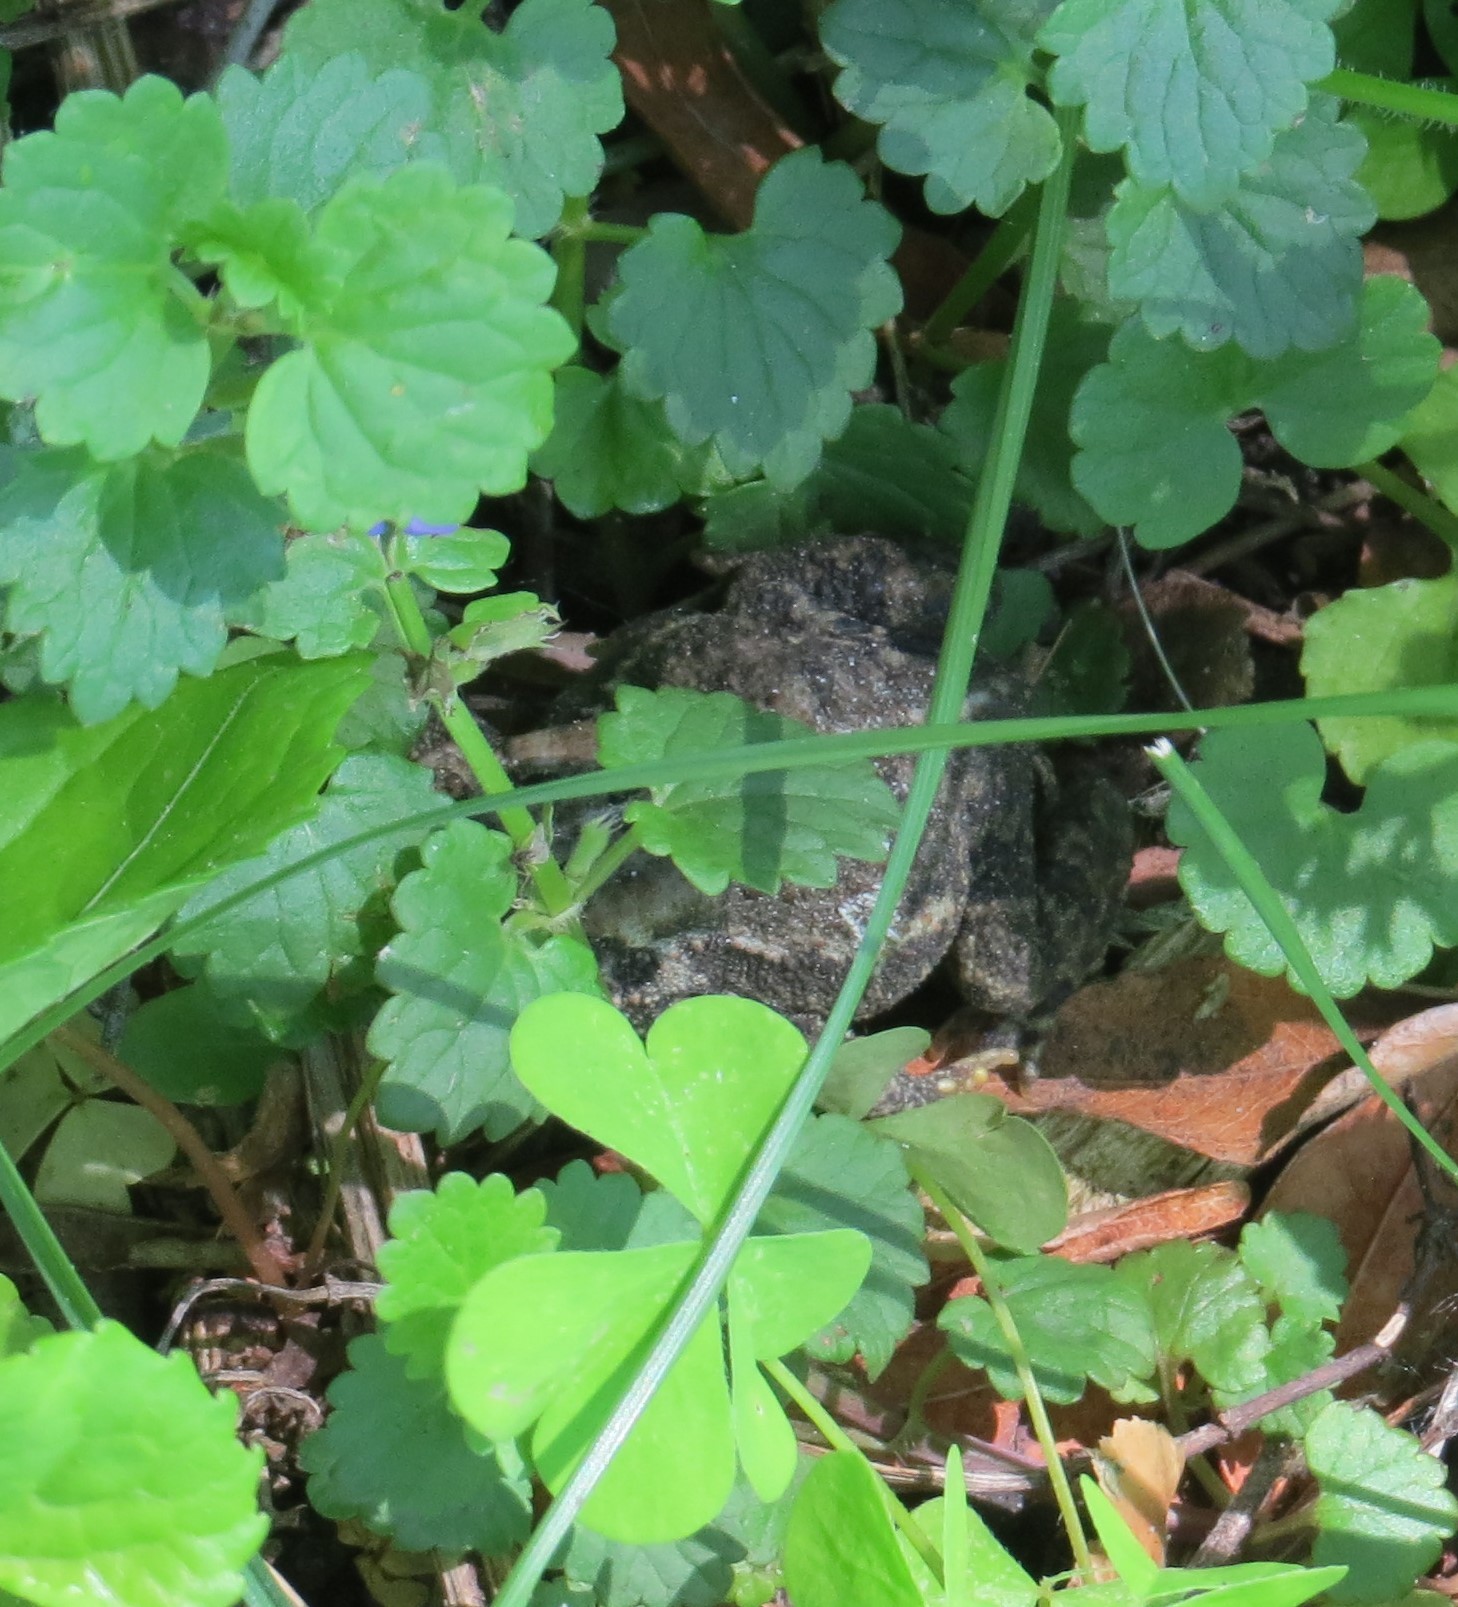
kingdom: Animalia
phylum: Chordata
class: Amphibia
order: Anura
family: Bufonidae
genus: Anaxyrus
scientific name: Anaxyrus americanus
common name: American toad
